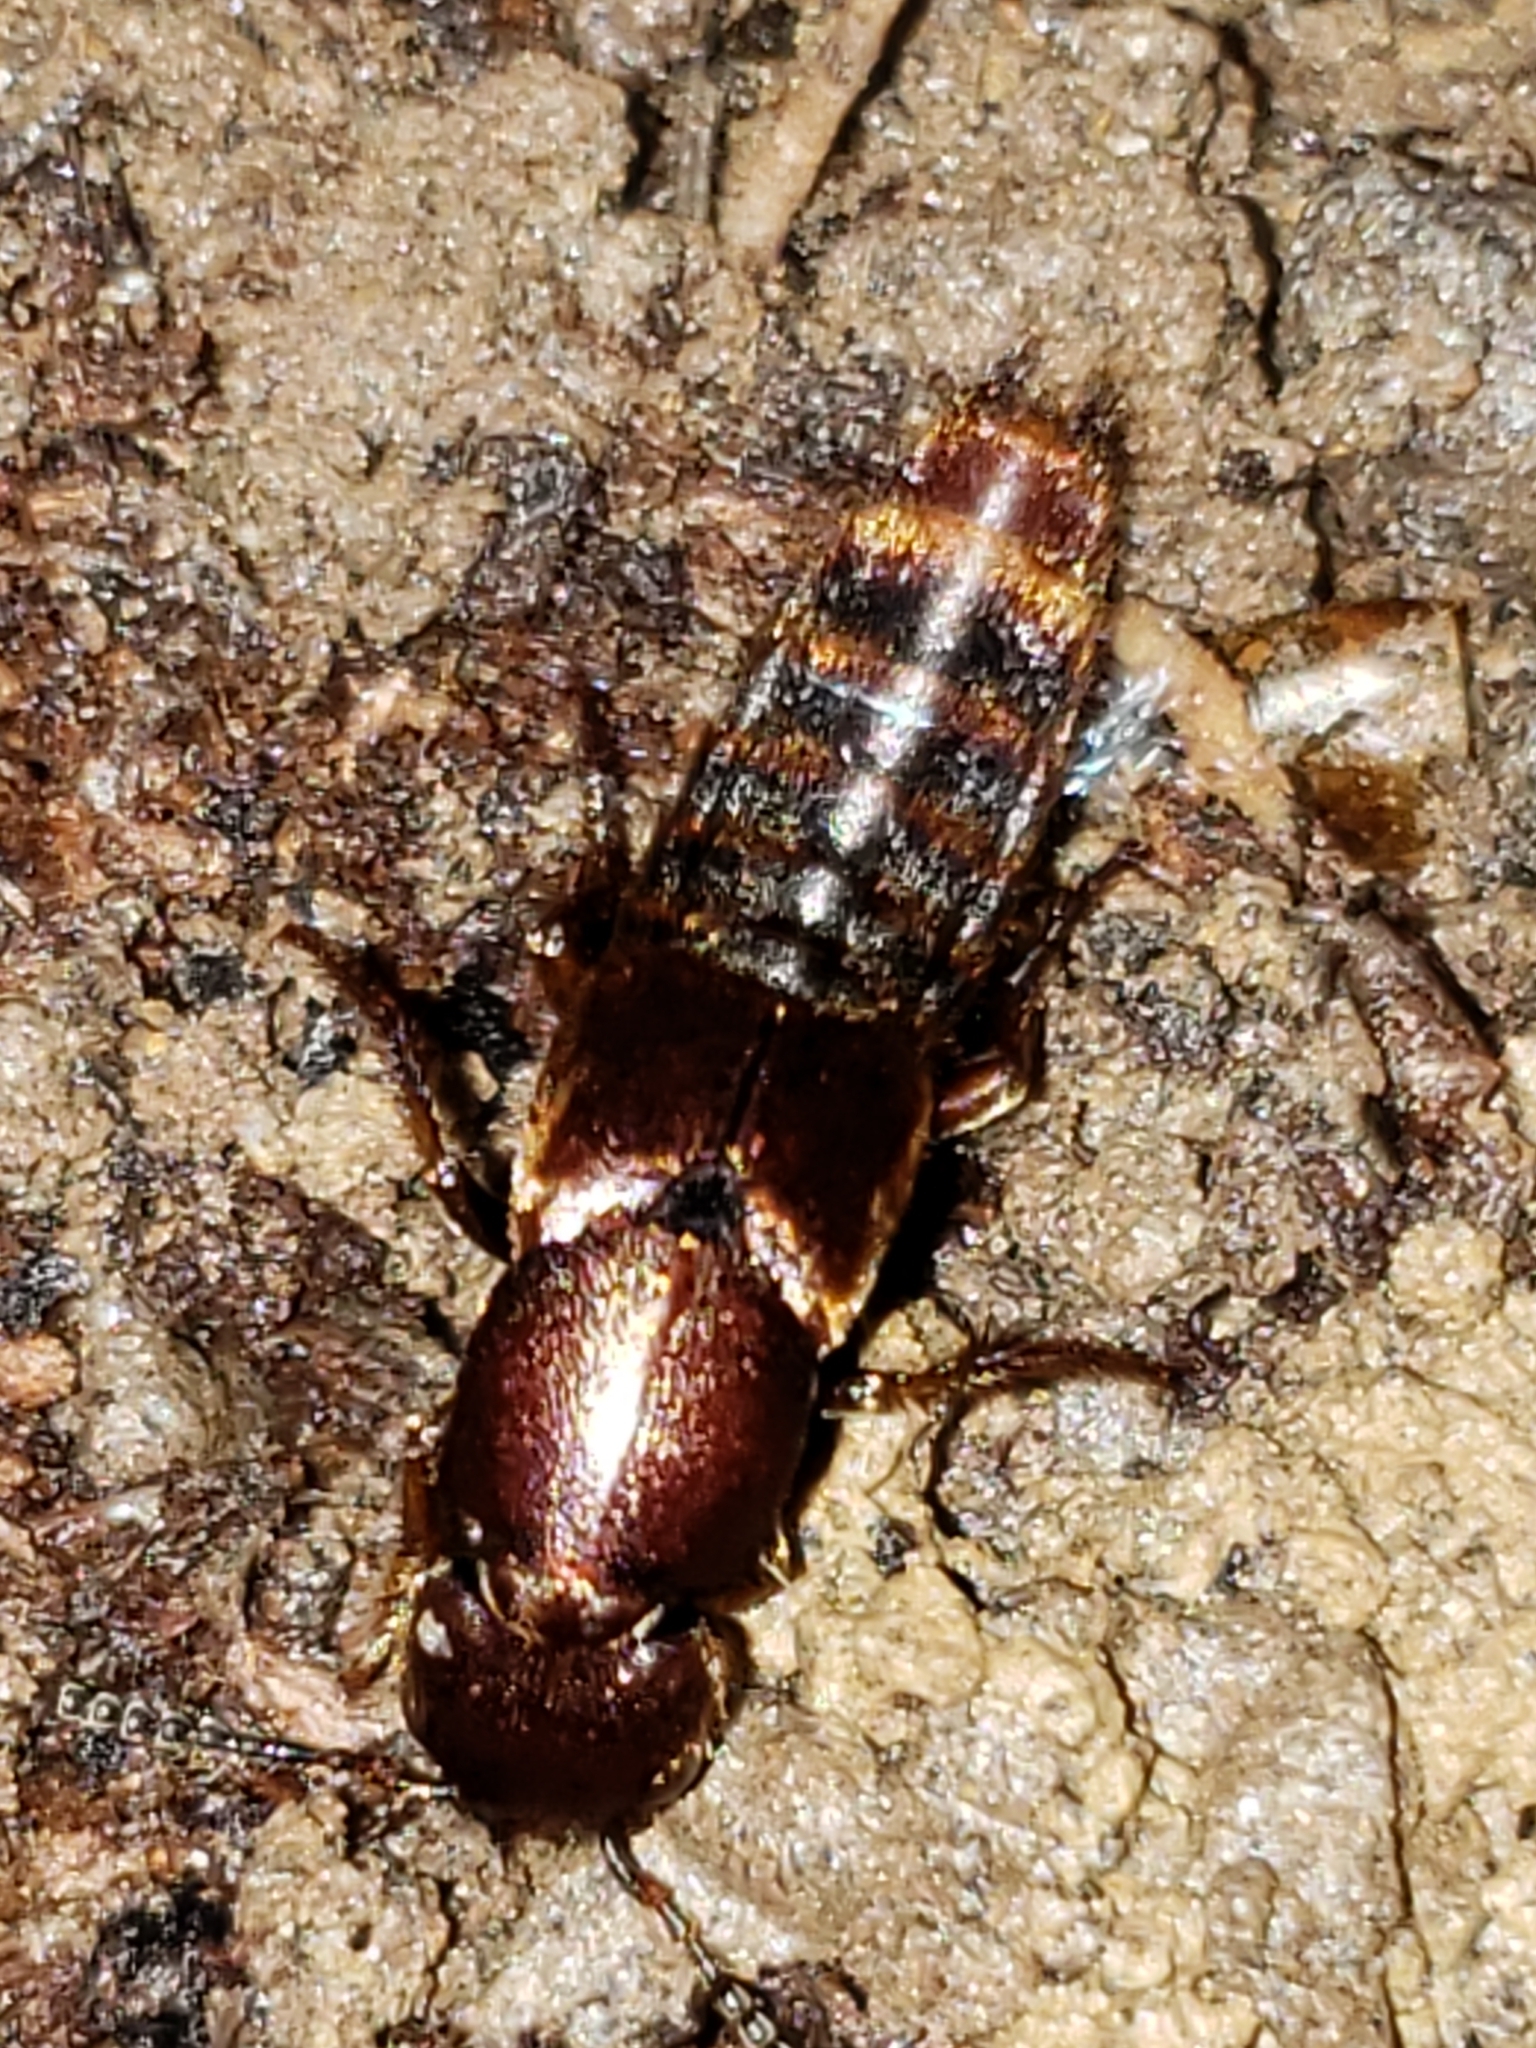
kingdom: Animalia
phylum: Arthropoda
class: Insecta
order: Coleoptera
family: Staphylinidae
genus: Platydracus
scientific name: Platydracus cinnamopterus
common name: Cinnamon rove beetle
